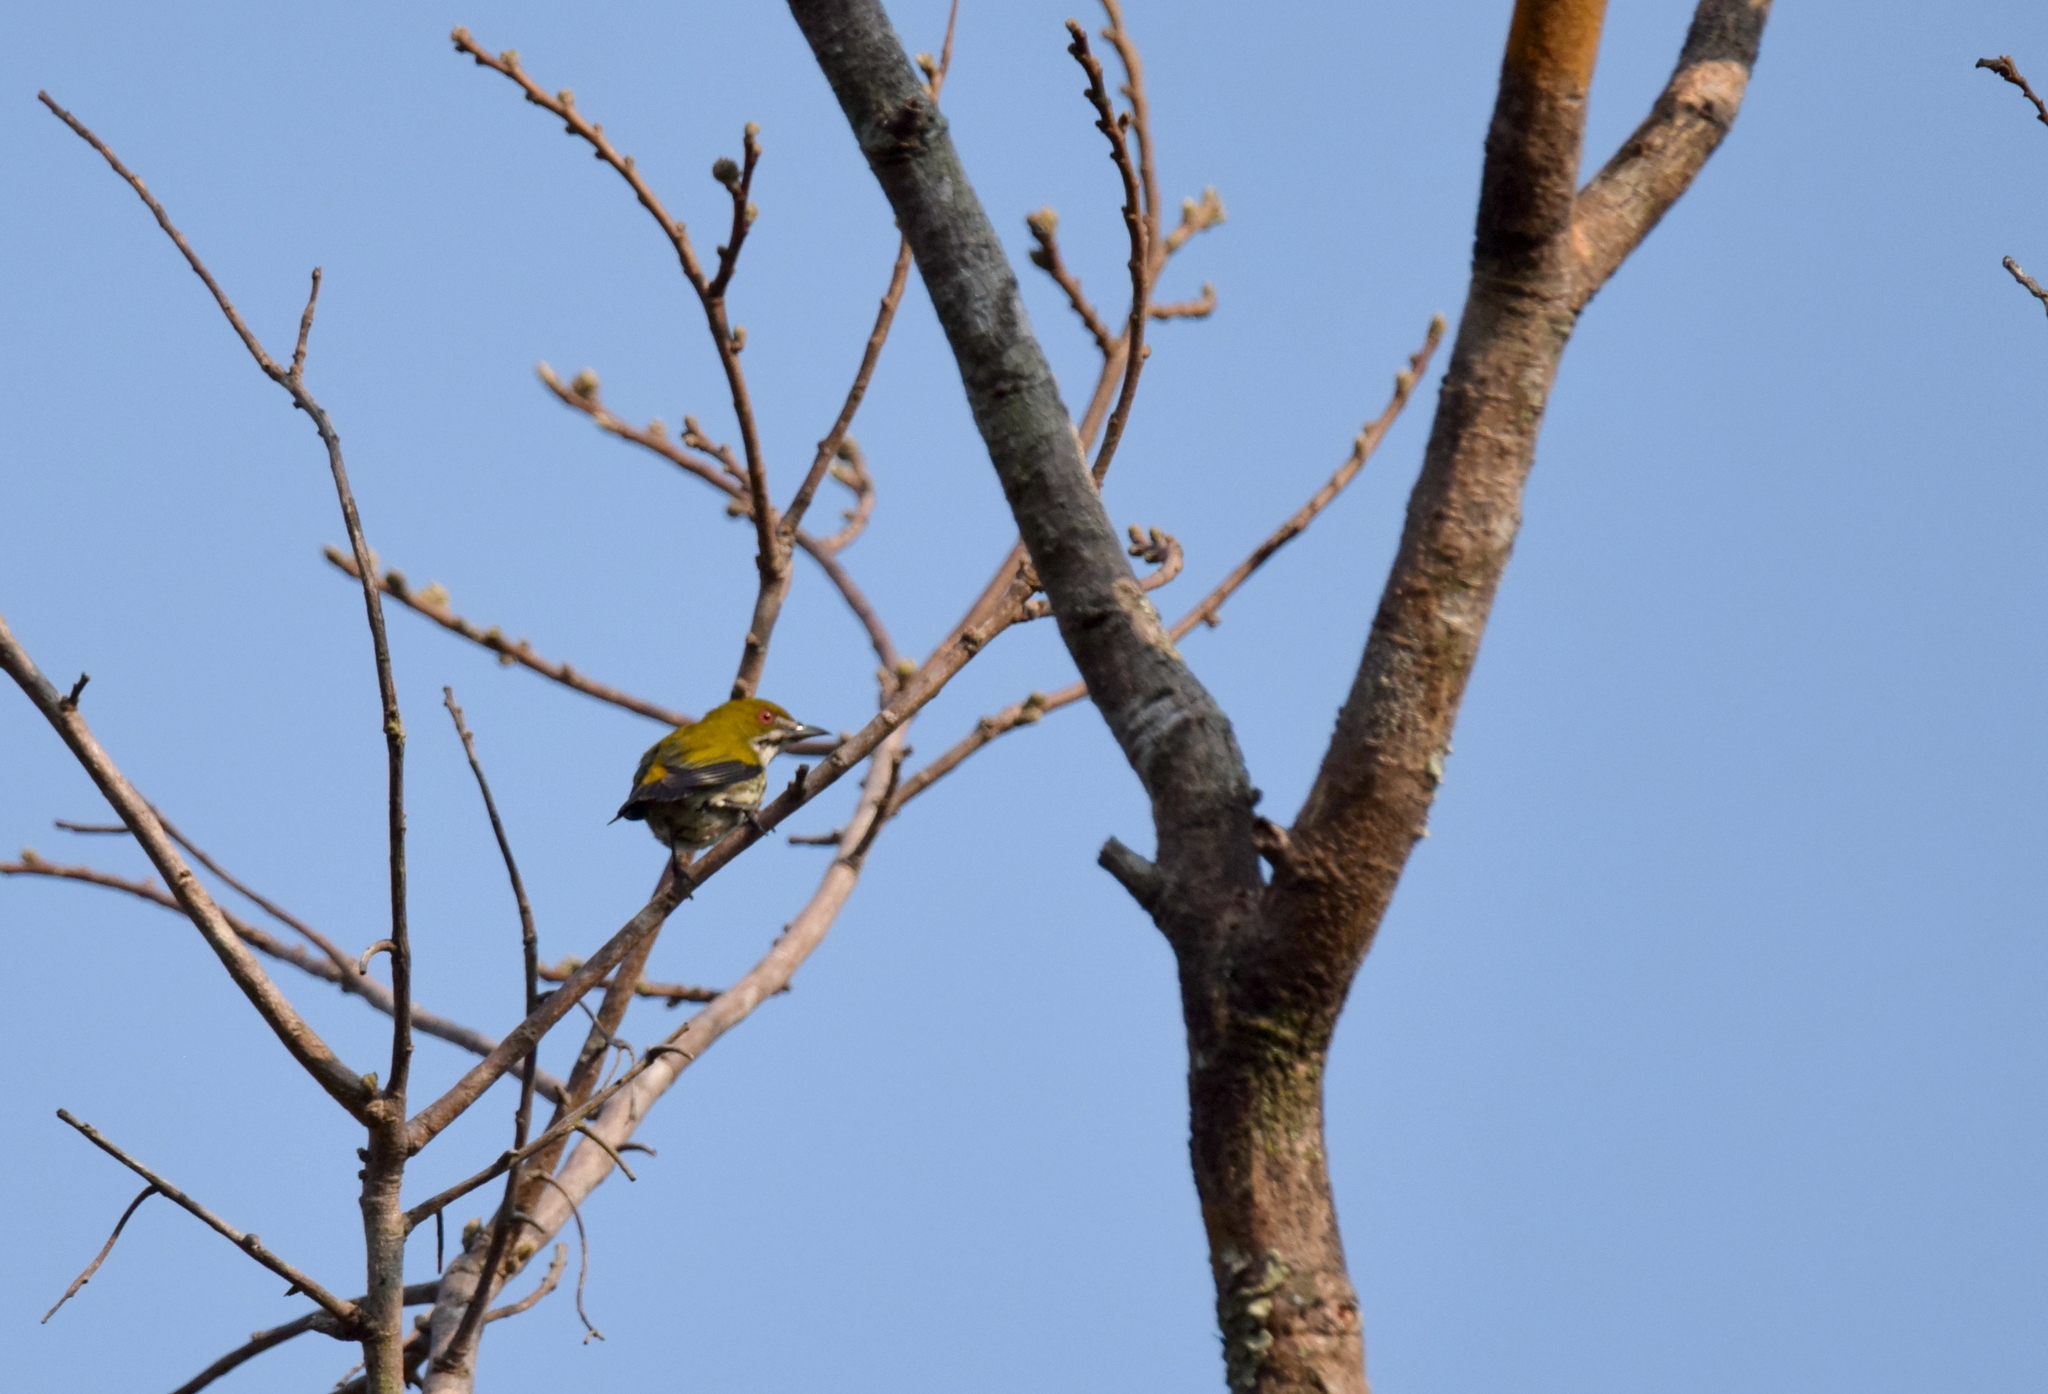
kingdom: Animalia
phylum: Chordata
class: Aves
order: Passeriformes
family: Dicaeidae
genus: Dicaeum
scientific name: Dicaeum chrysorrheum
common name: Yellow-vented flowerpecker
